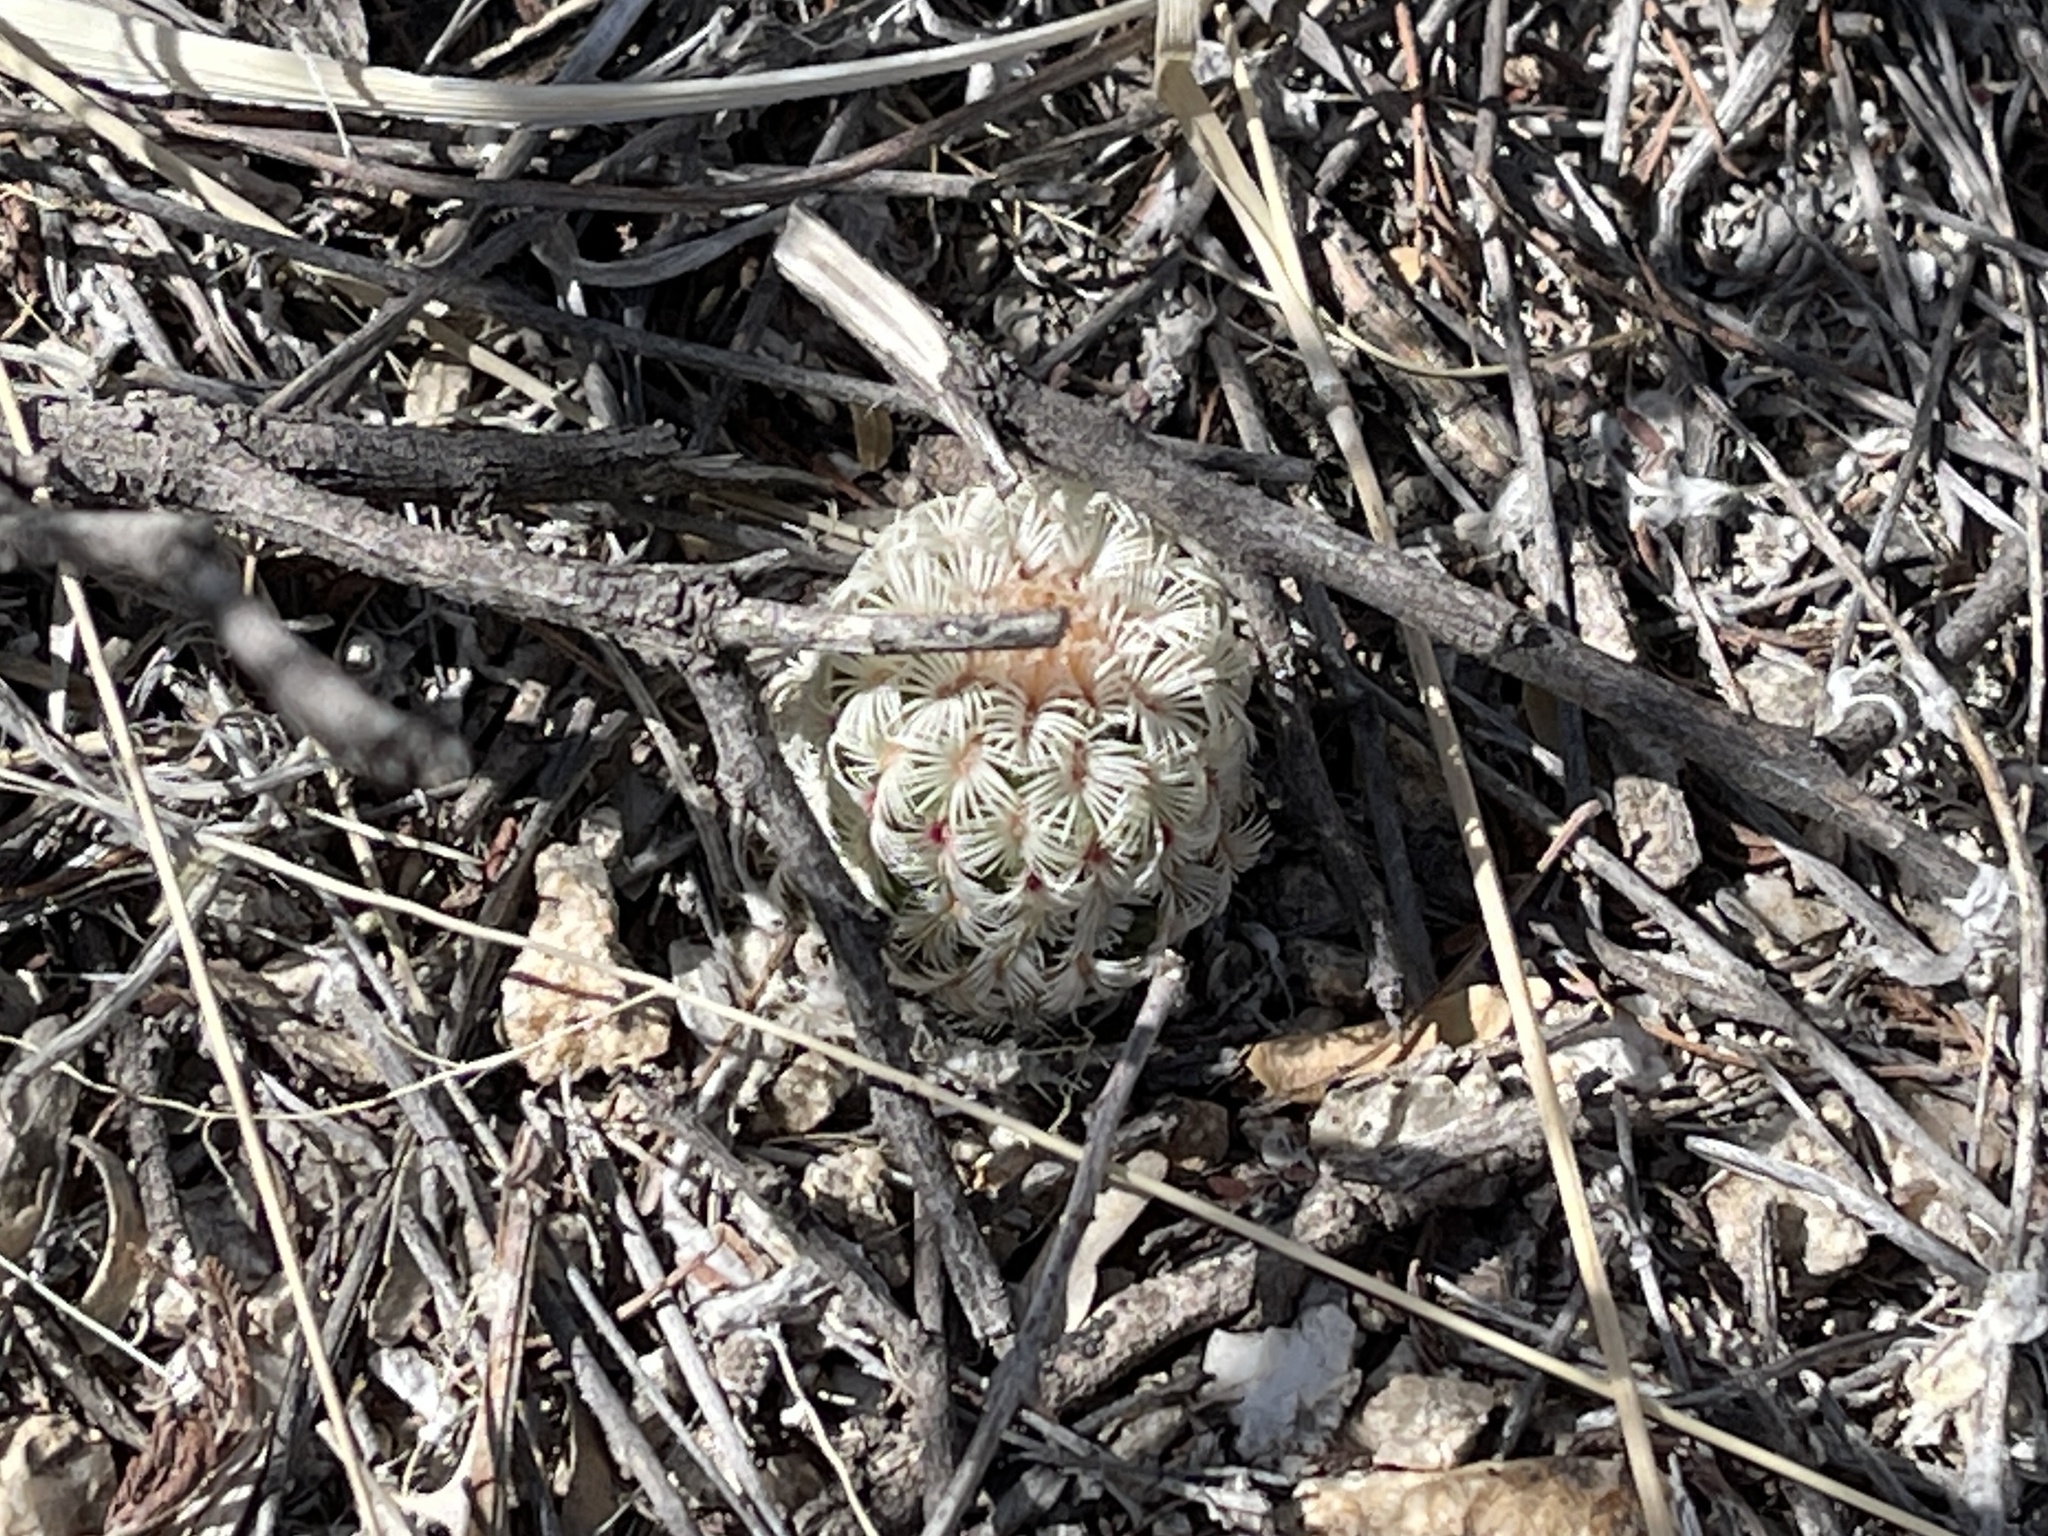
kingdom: Plantae
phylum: Tracheophyta
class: Magnoliopsida
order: Caryophyllales
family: Cactaceae
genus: Echinocereus
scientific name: Echinocereus rigidissimus
